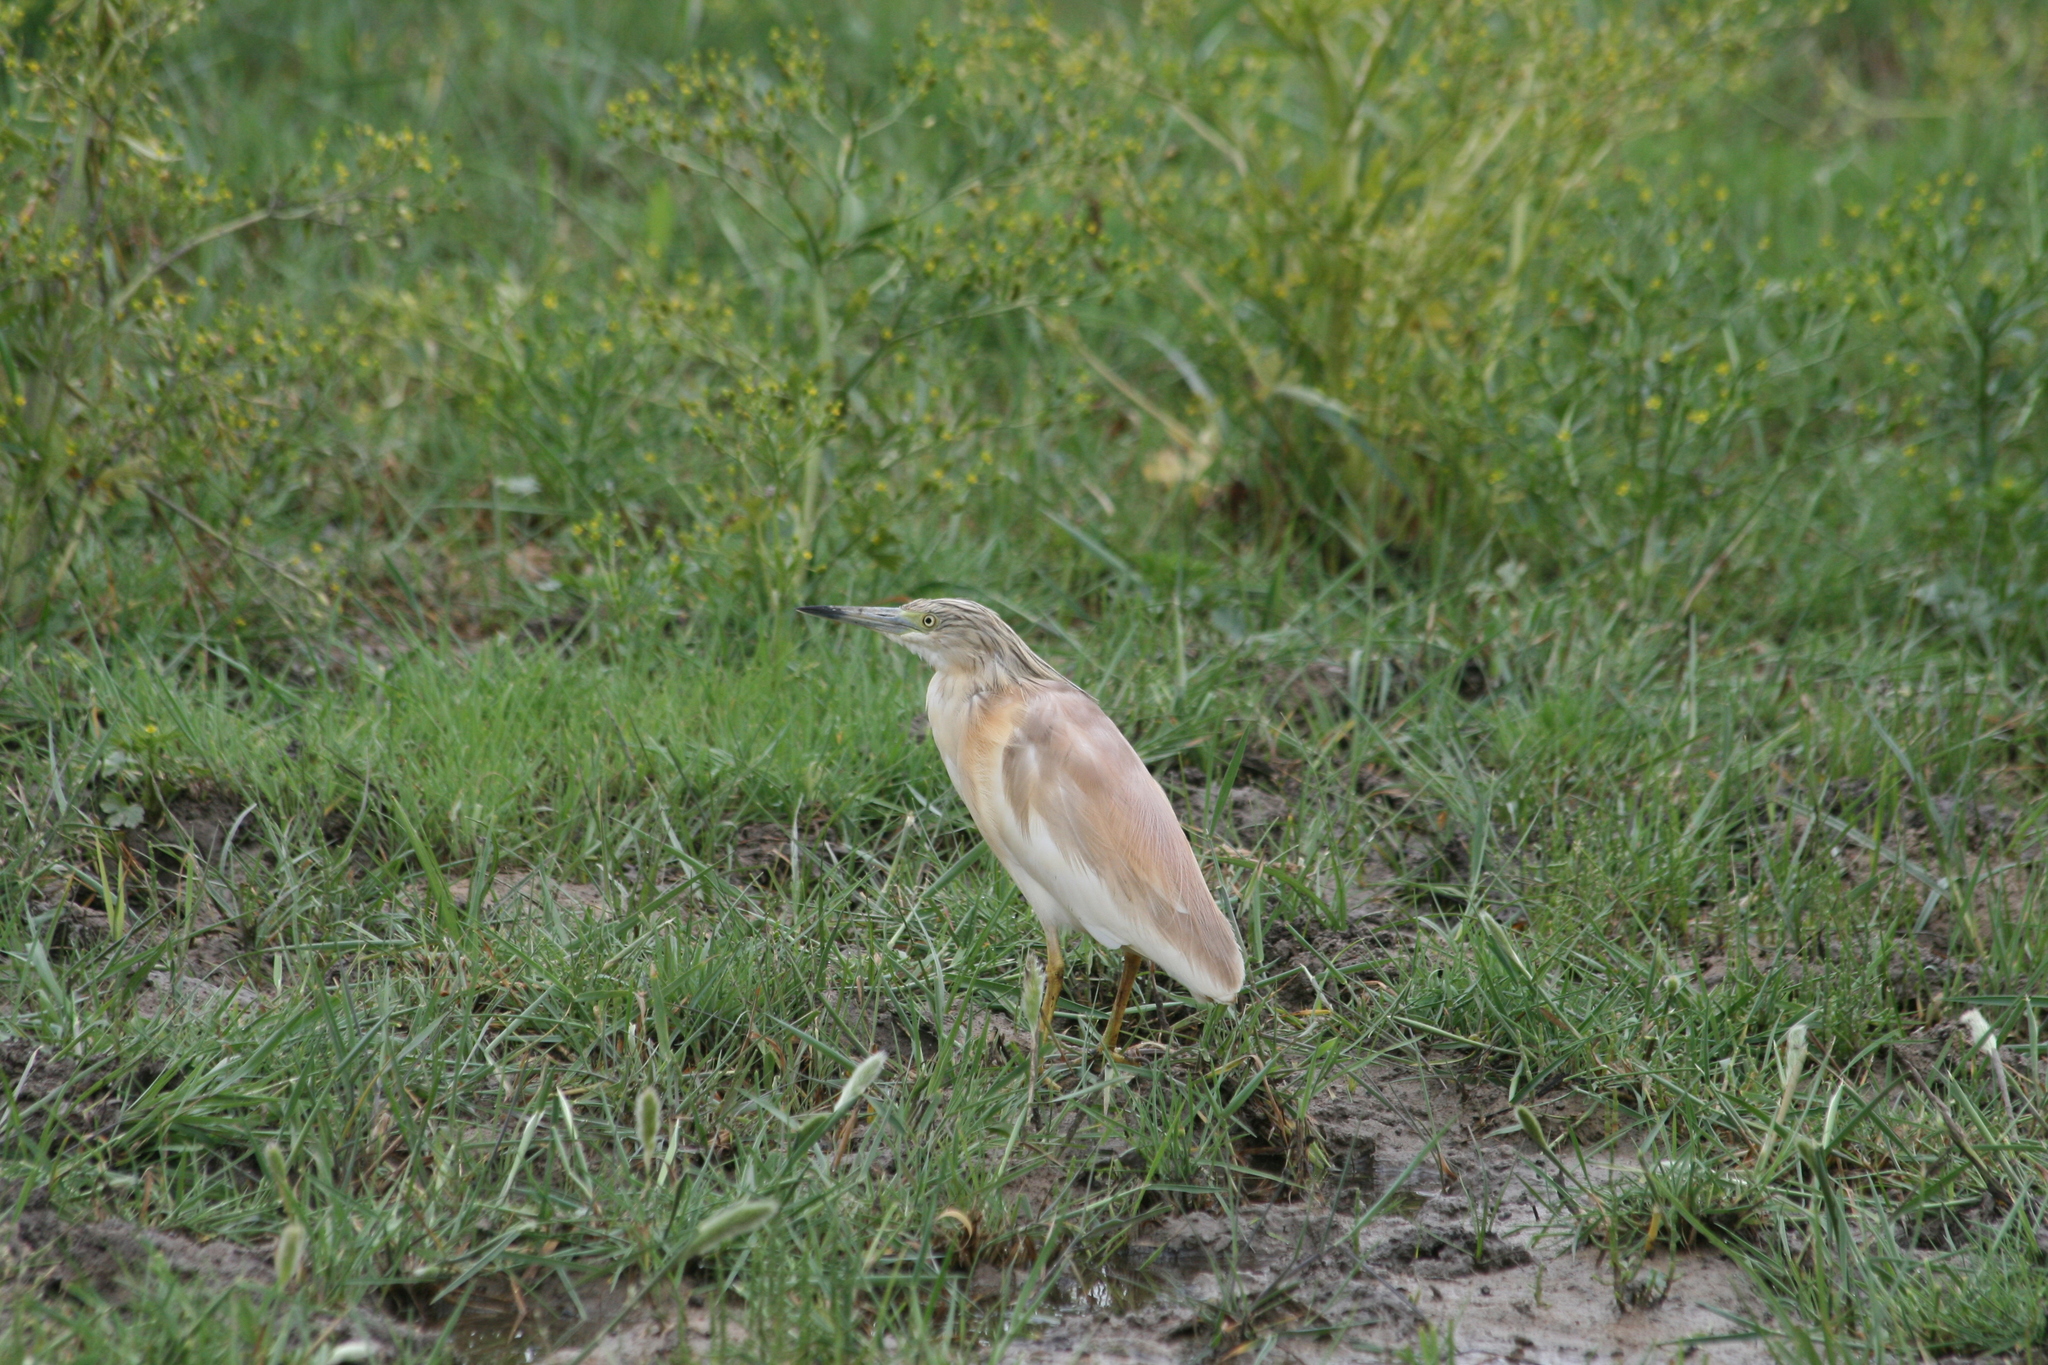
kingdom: Animalia
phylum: Chordata
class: Aves
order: Pelecaniformes
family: Ardeidae
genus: Ardeola
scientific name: Ardeola ralloides
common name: Squacco heron
